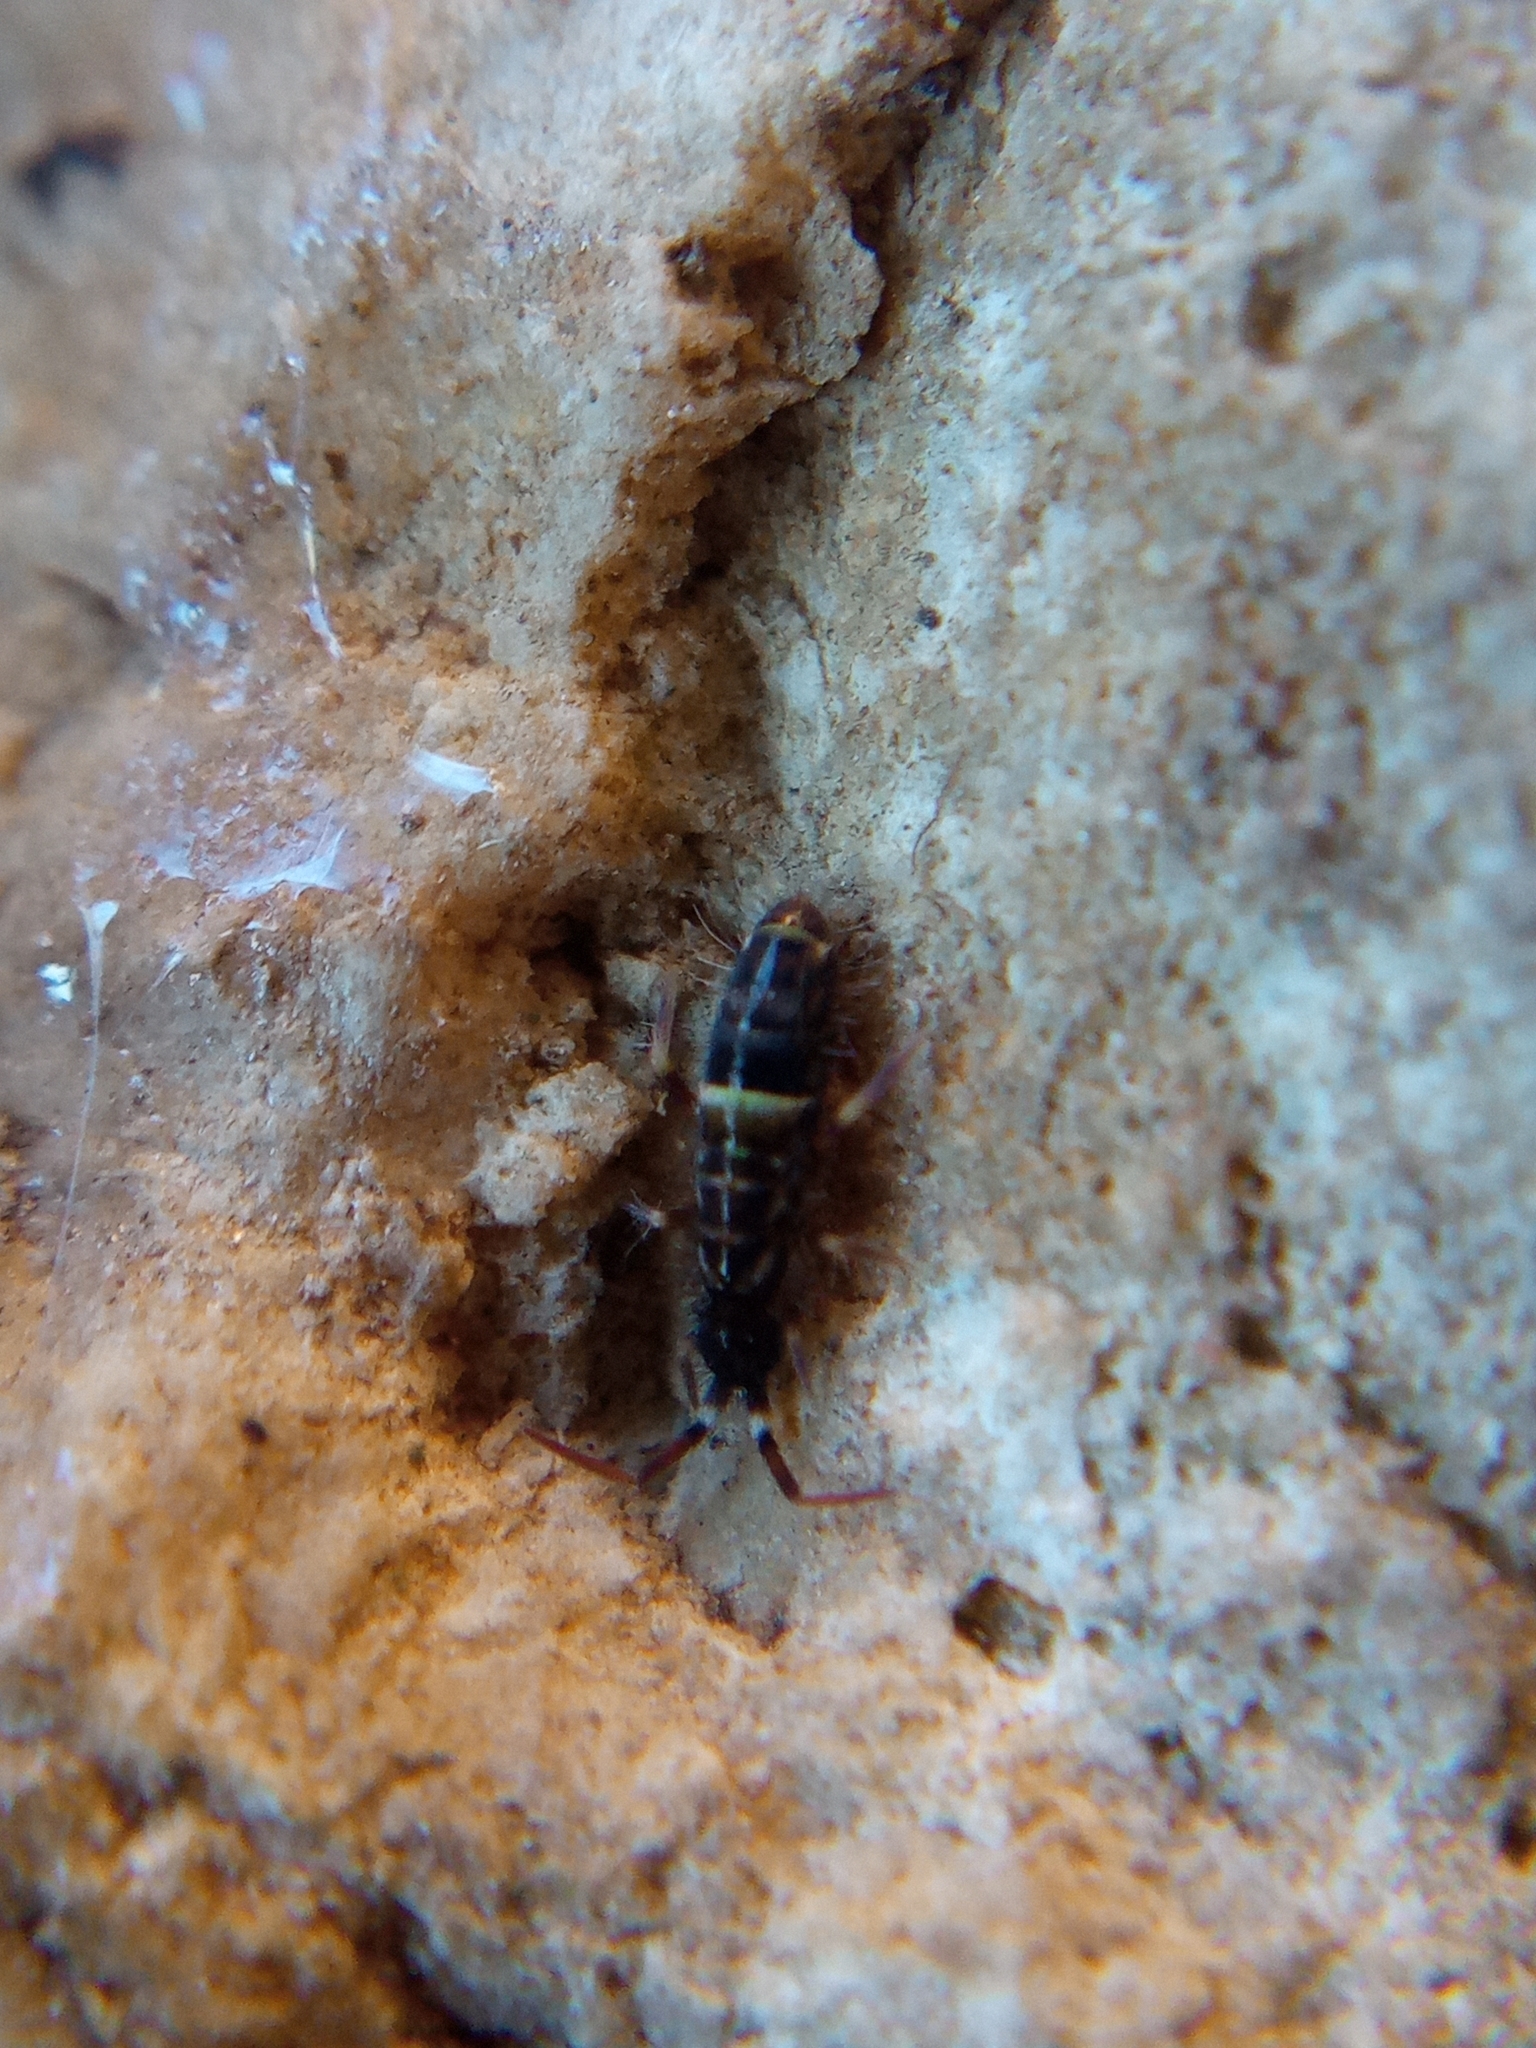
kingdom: Animalia
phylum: Arthropoda
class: Collembola
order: Entomobryomorpha
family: Orchesellidae
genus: Orchesella
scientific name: Orchesella cincta
